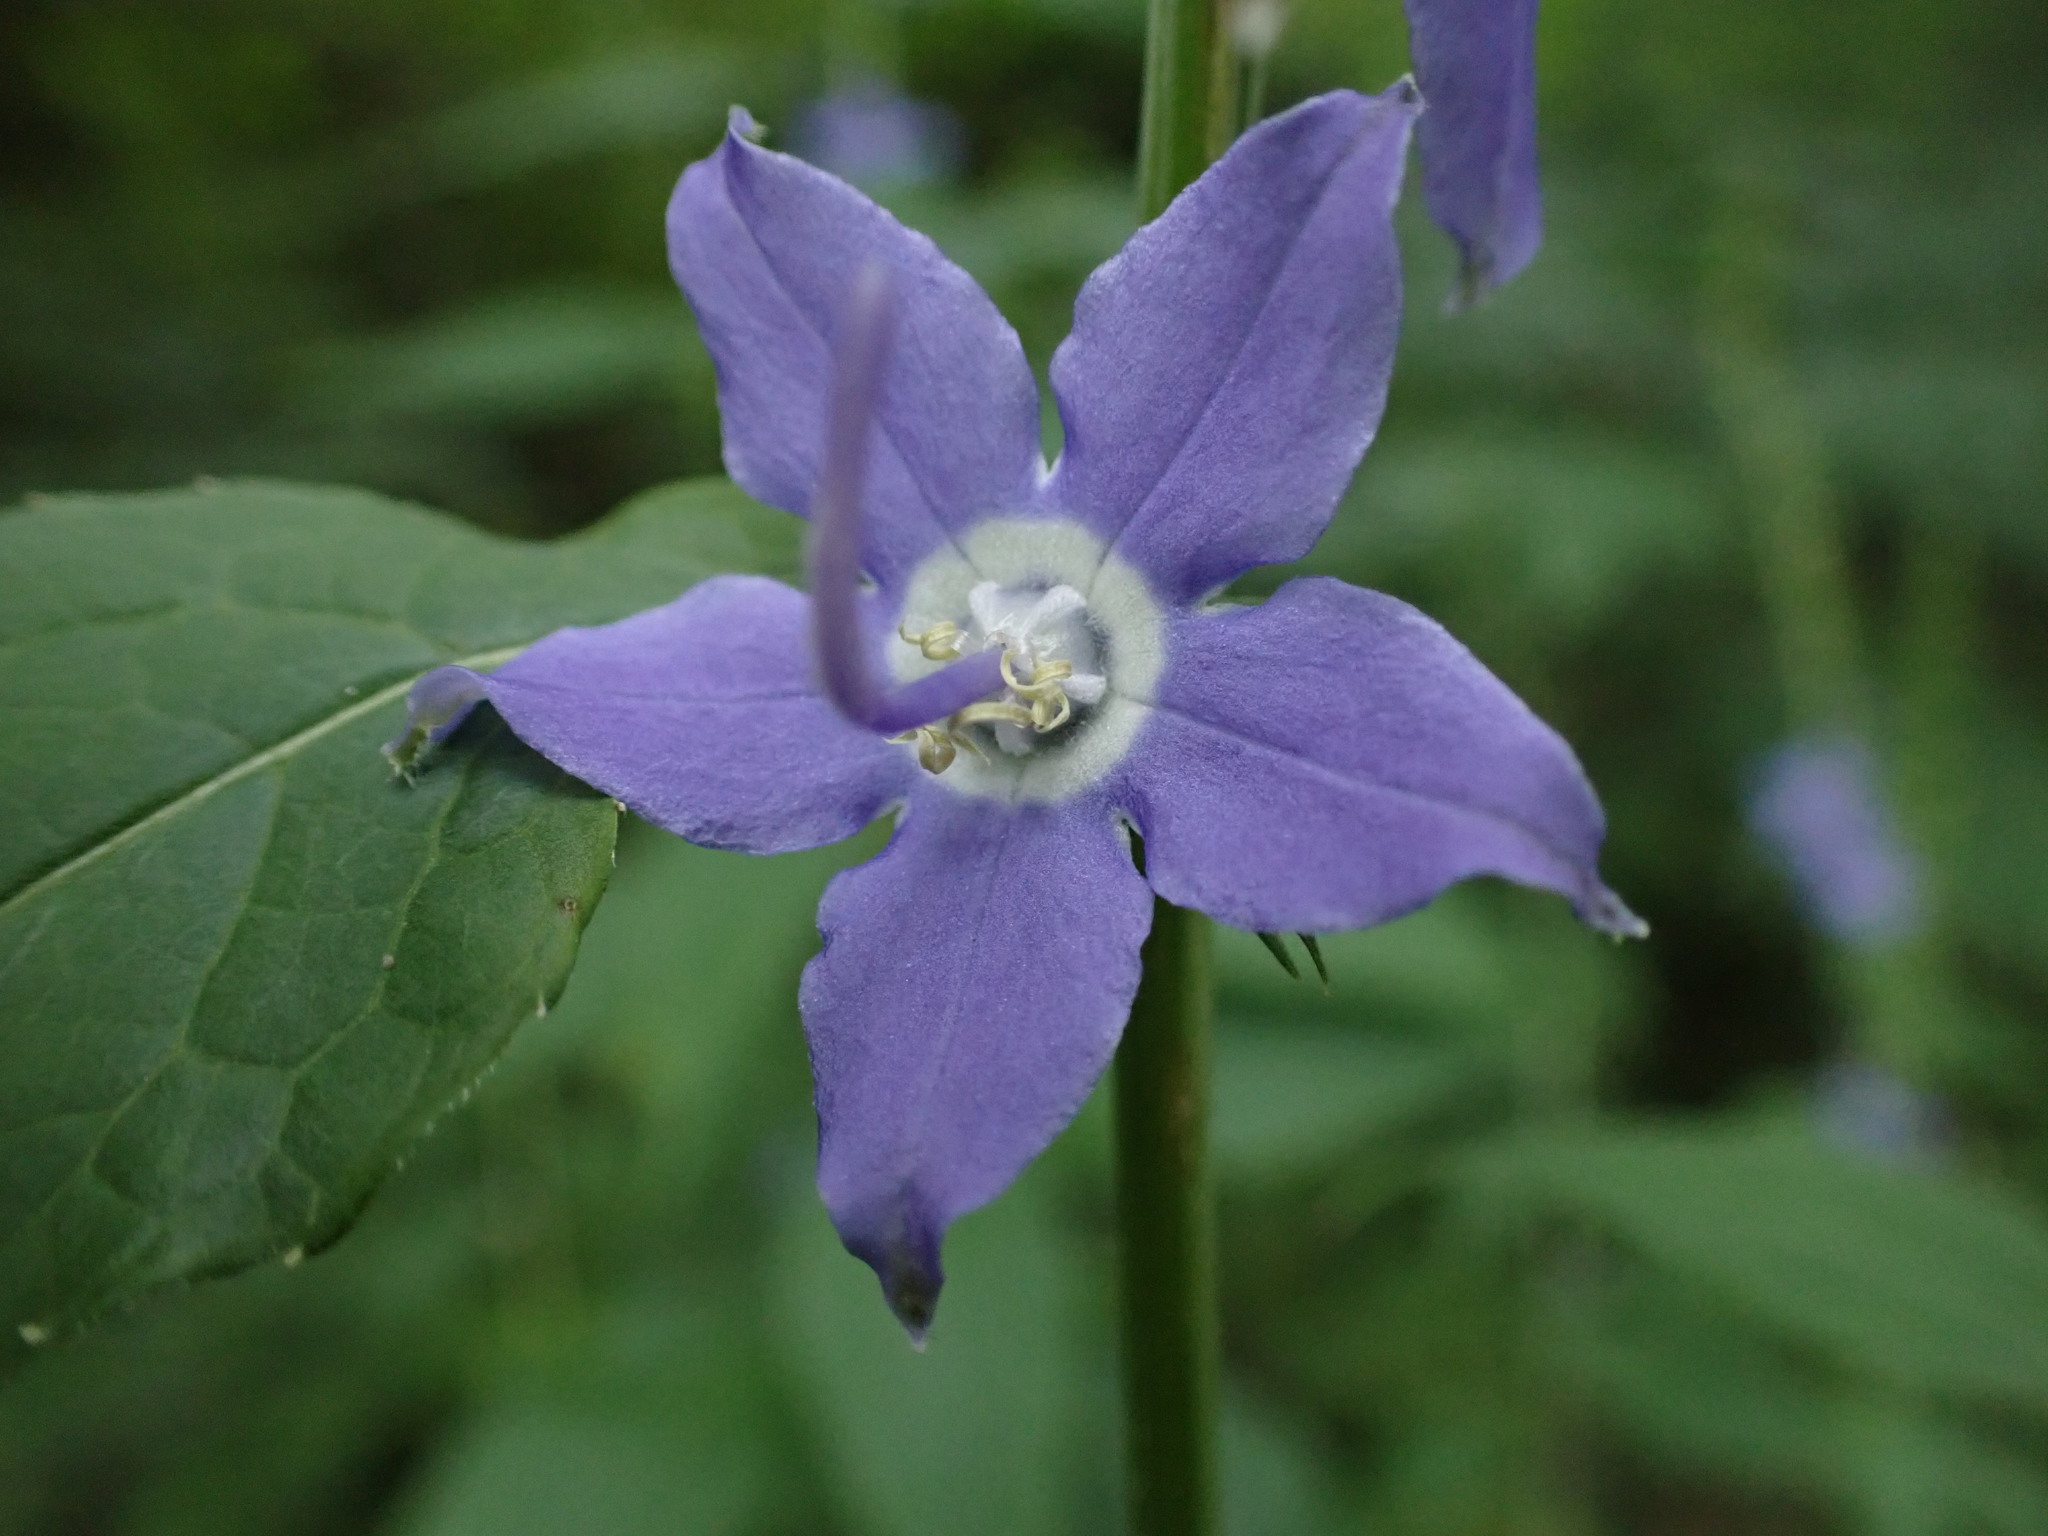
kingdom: Plantae
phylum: Tracheophyta
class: Magnoliopsida
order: Asterales
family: Campanulaceae
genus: Campanulastrum
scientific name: Campanulastrum americanum
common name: American bellflower
